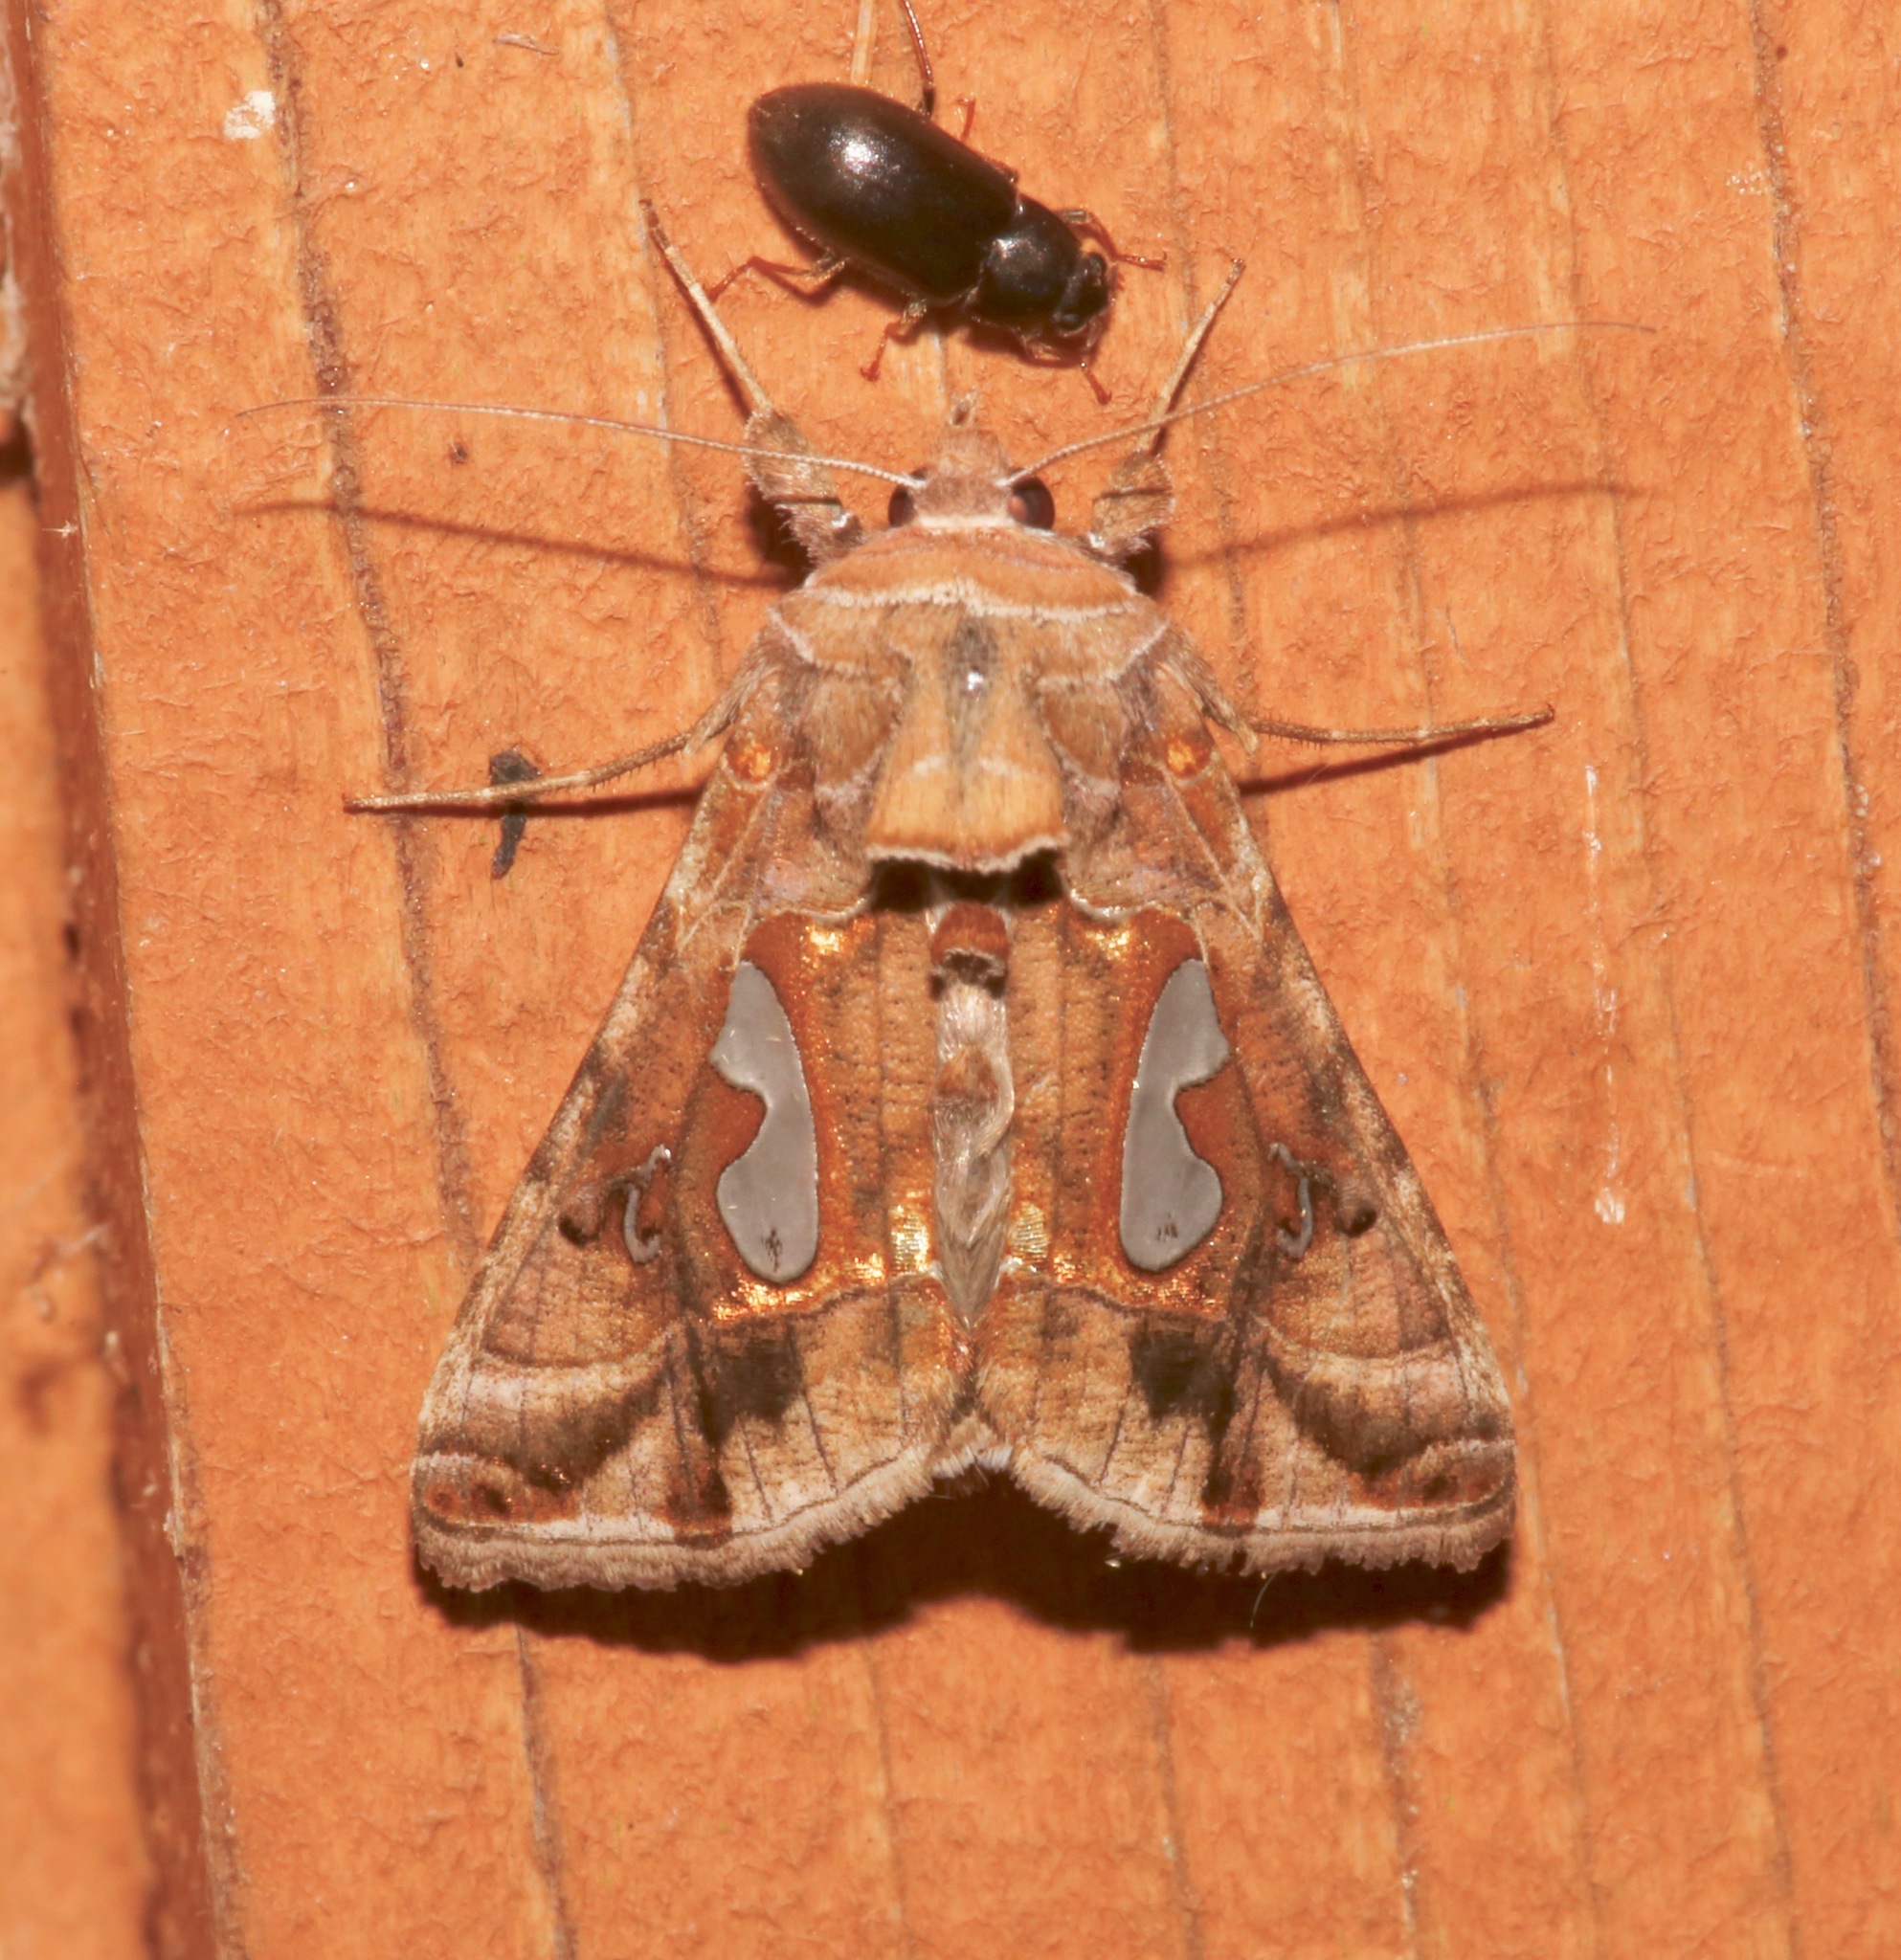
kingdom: Animalia
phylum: Arthropoda
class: Insecta
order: Lepidoptera
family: Noctuidae
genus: Megalographa
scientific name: Megalographa biloba
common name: Cutworm
